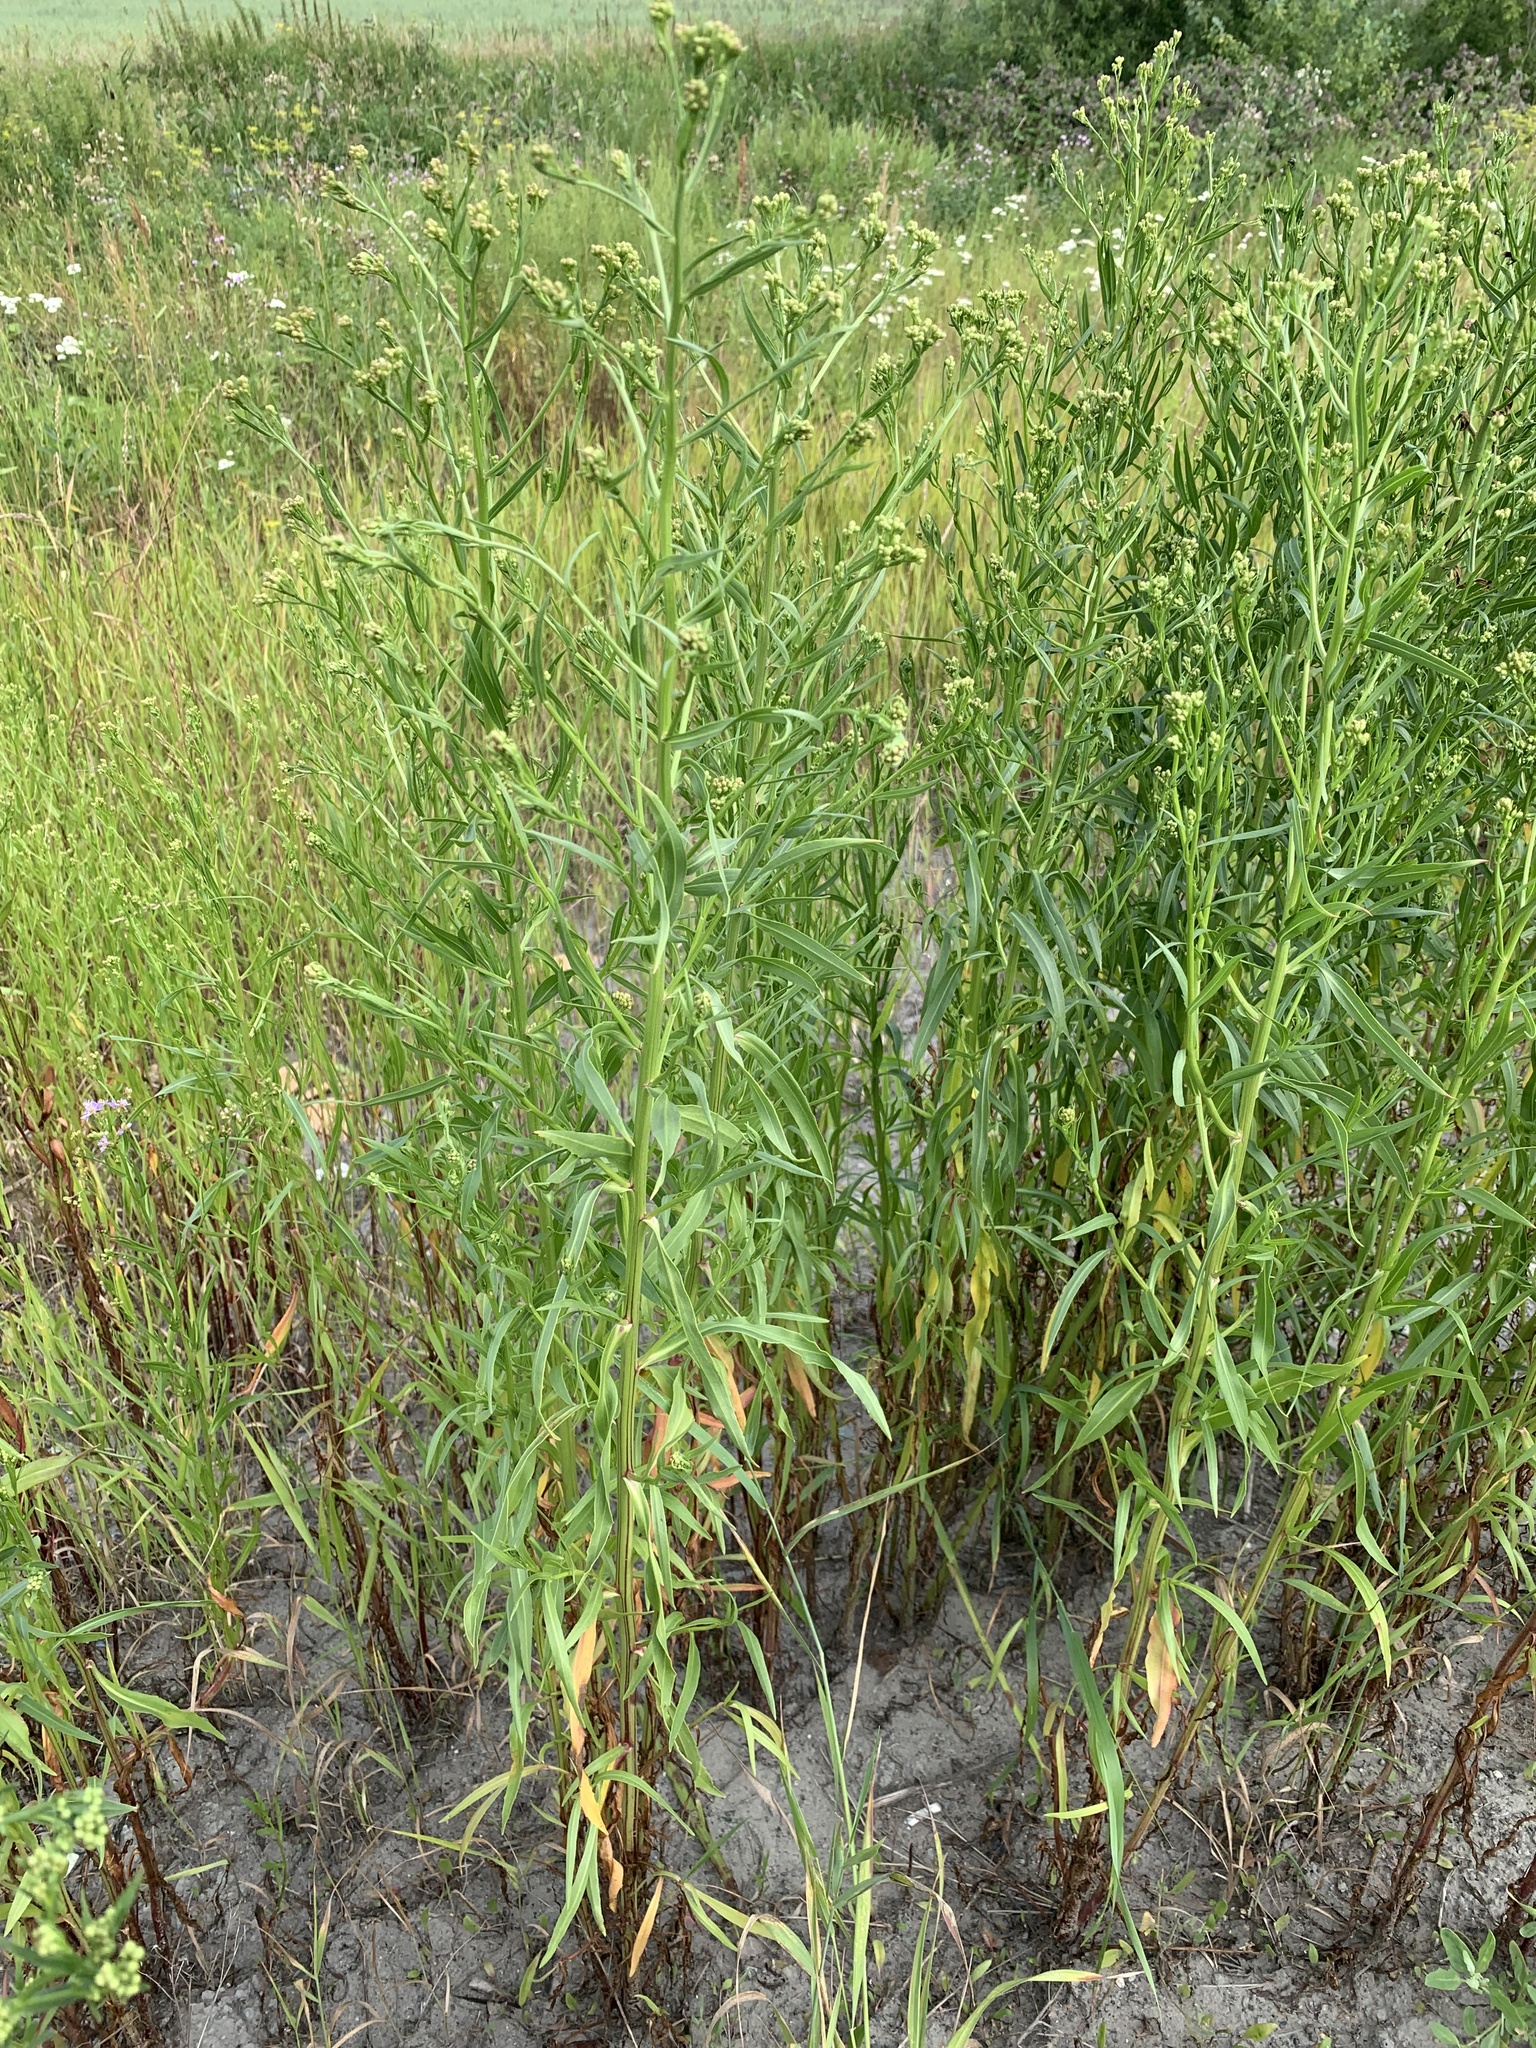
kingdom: Plantae
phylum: Tracheophyta
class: Magnoliopsida
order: Asterales
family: Asteraceae
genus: Tripolium
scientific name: Tripolium pannonicum
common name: Sea aster
